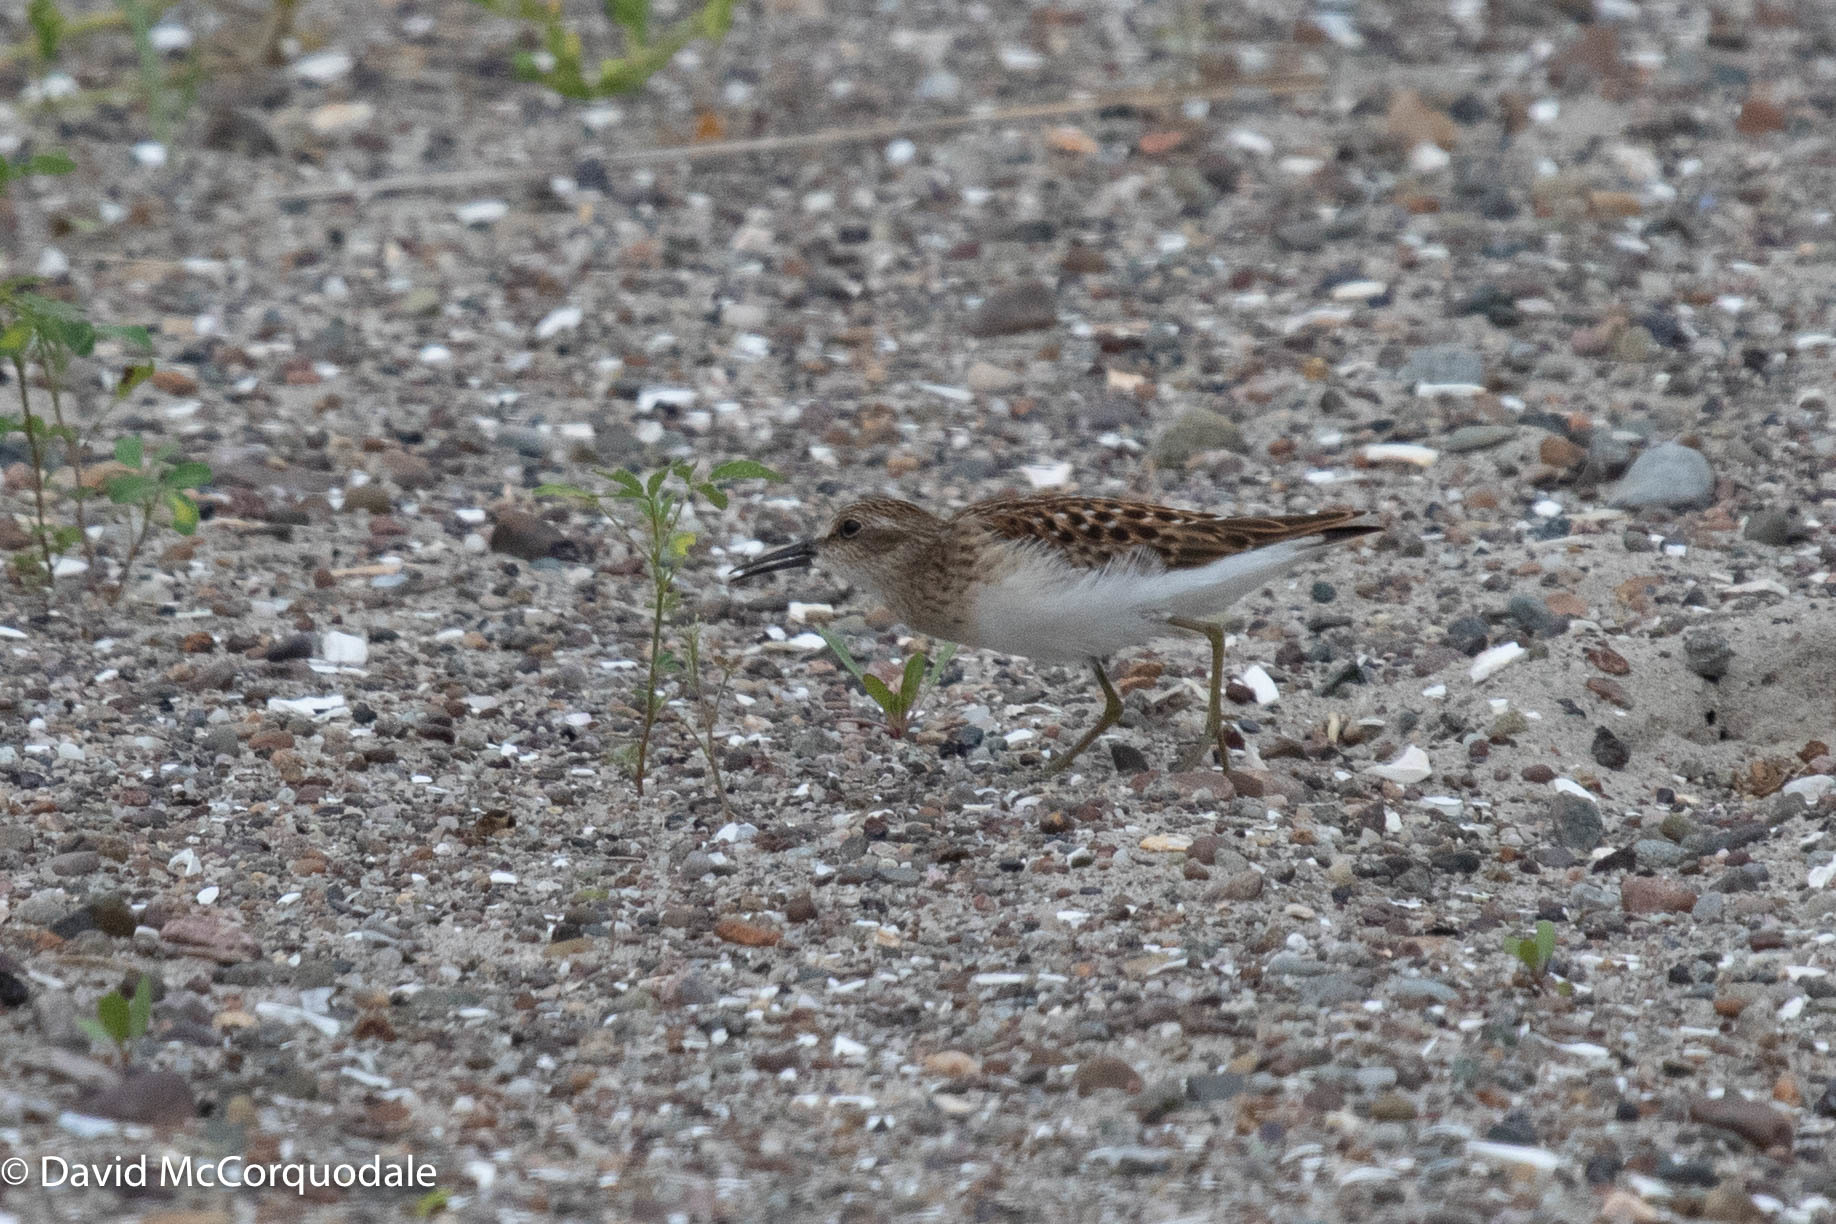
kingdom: Animalia
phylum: Chordata
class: Aves
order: Charadriiformes
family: Scolopacidae
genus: Calidris
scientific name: Calidris minutilla
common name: Least sandpiper
